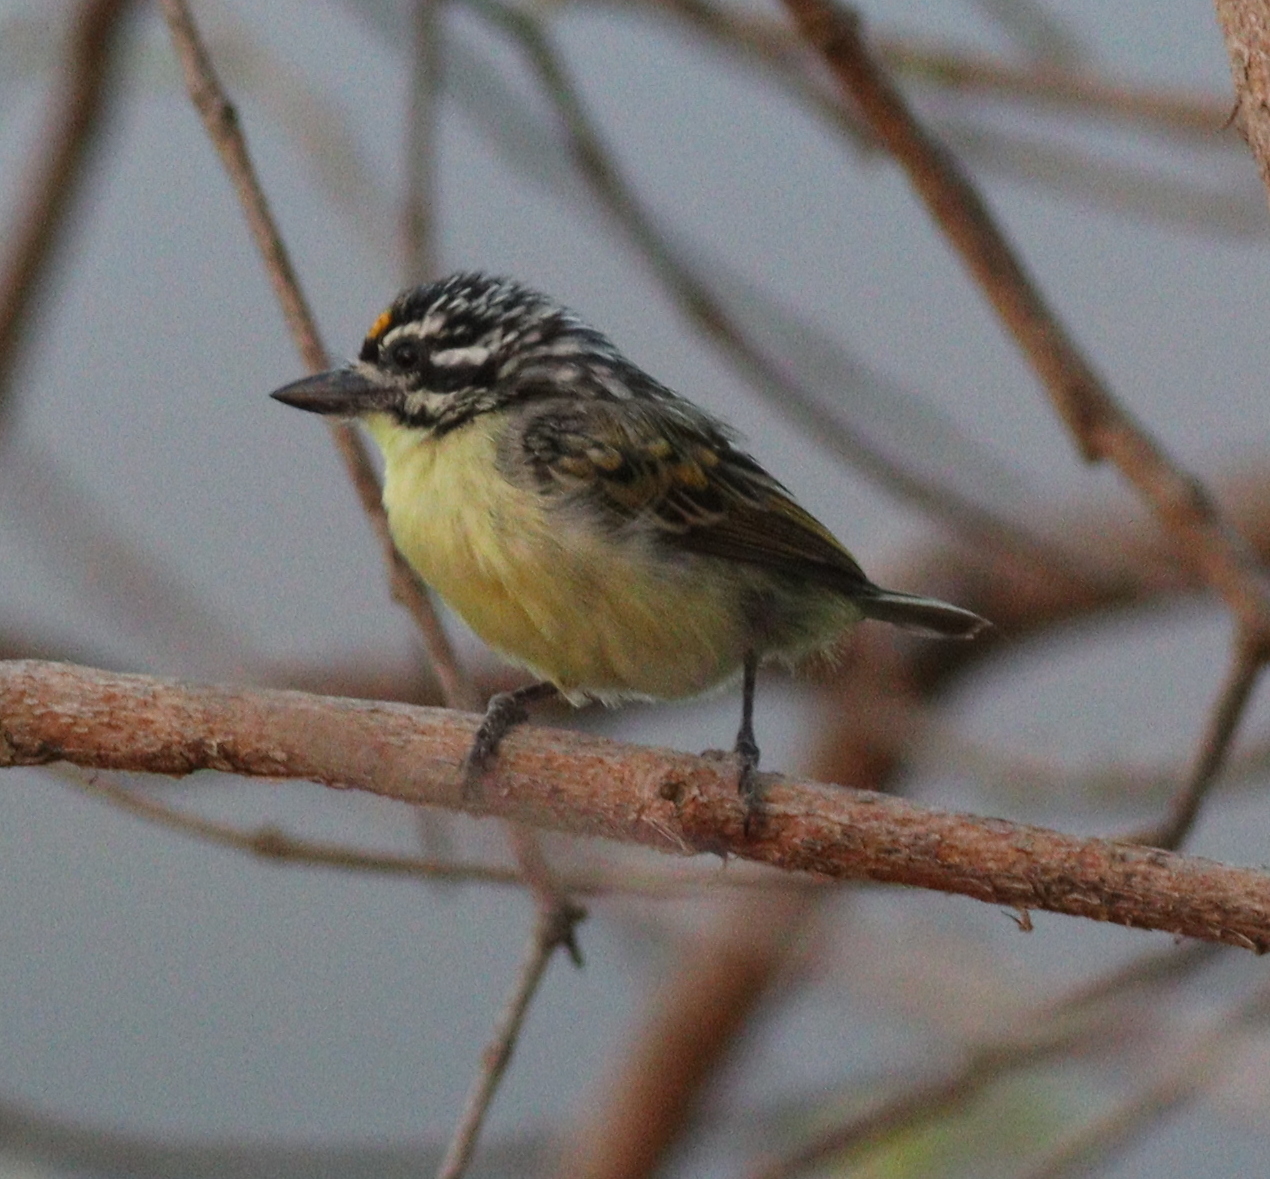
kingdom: Animalia
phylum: Chordata
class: Aves
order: Piciformes
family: Lybiidae
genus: Pogoniulus
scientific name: Pogoniulus chrysoconus
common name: Yellow-fronted tinkerbird
